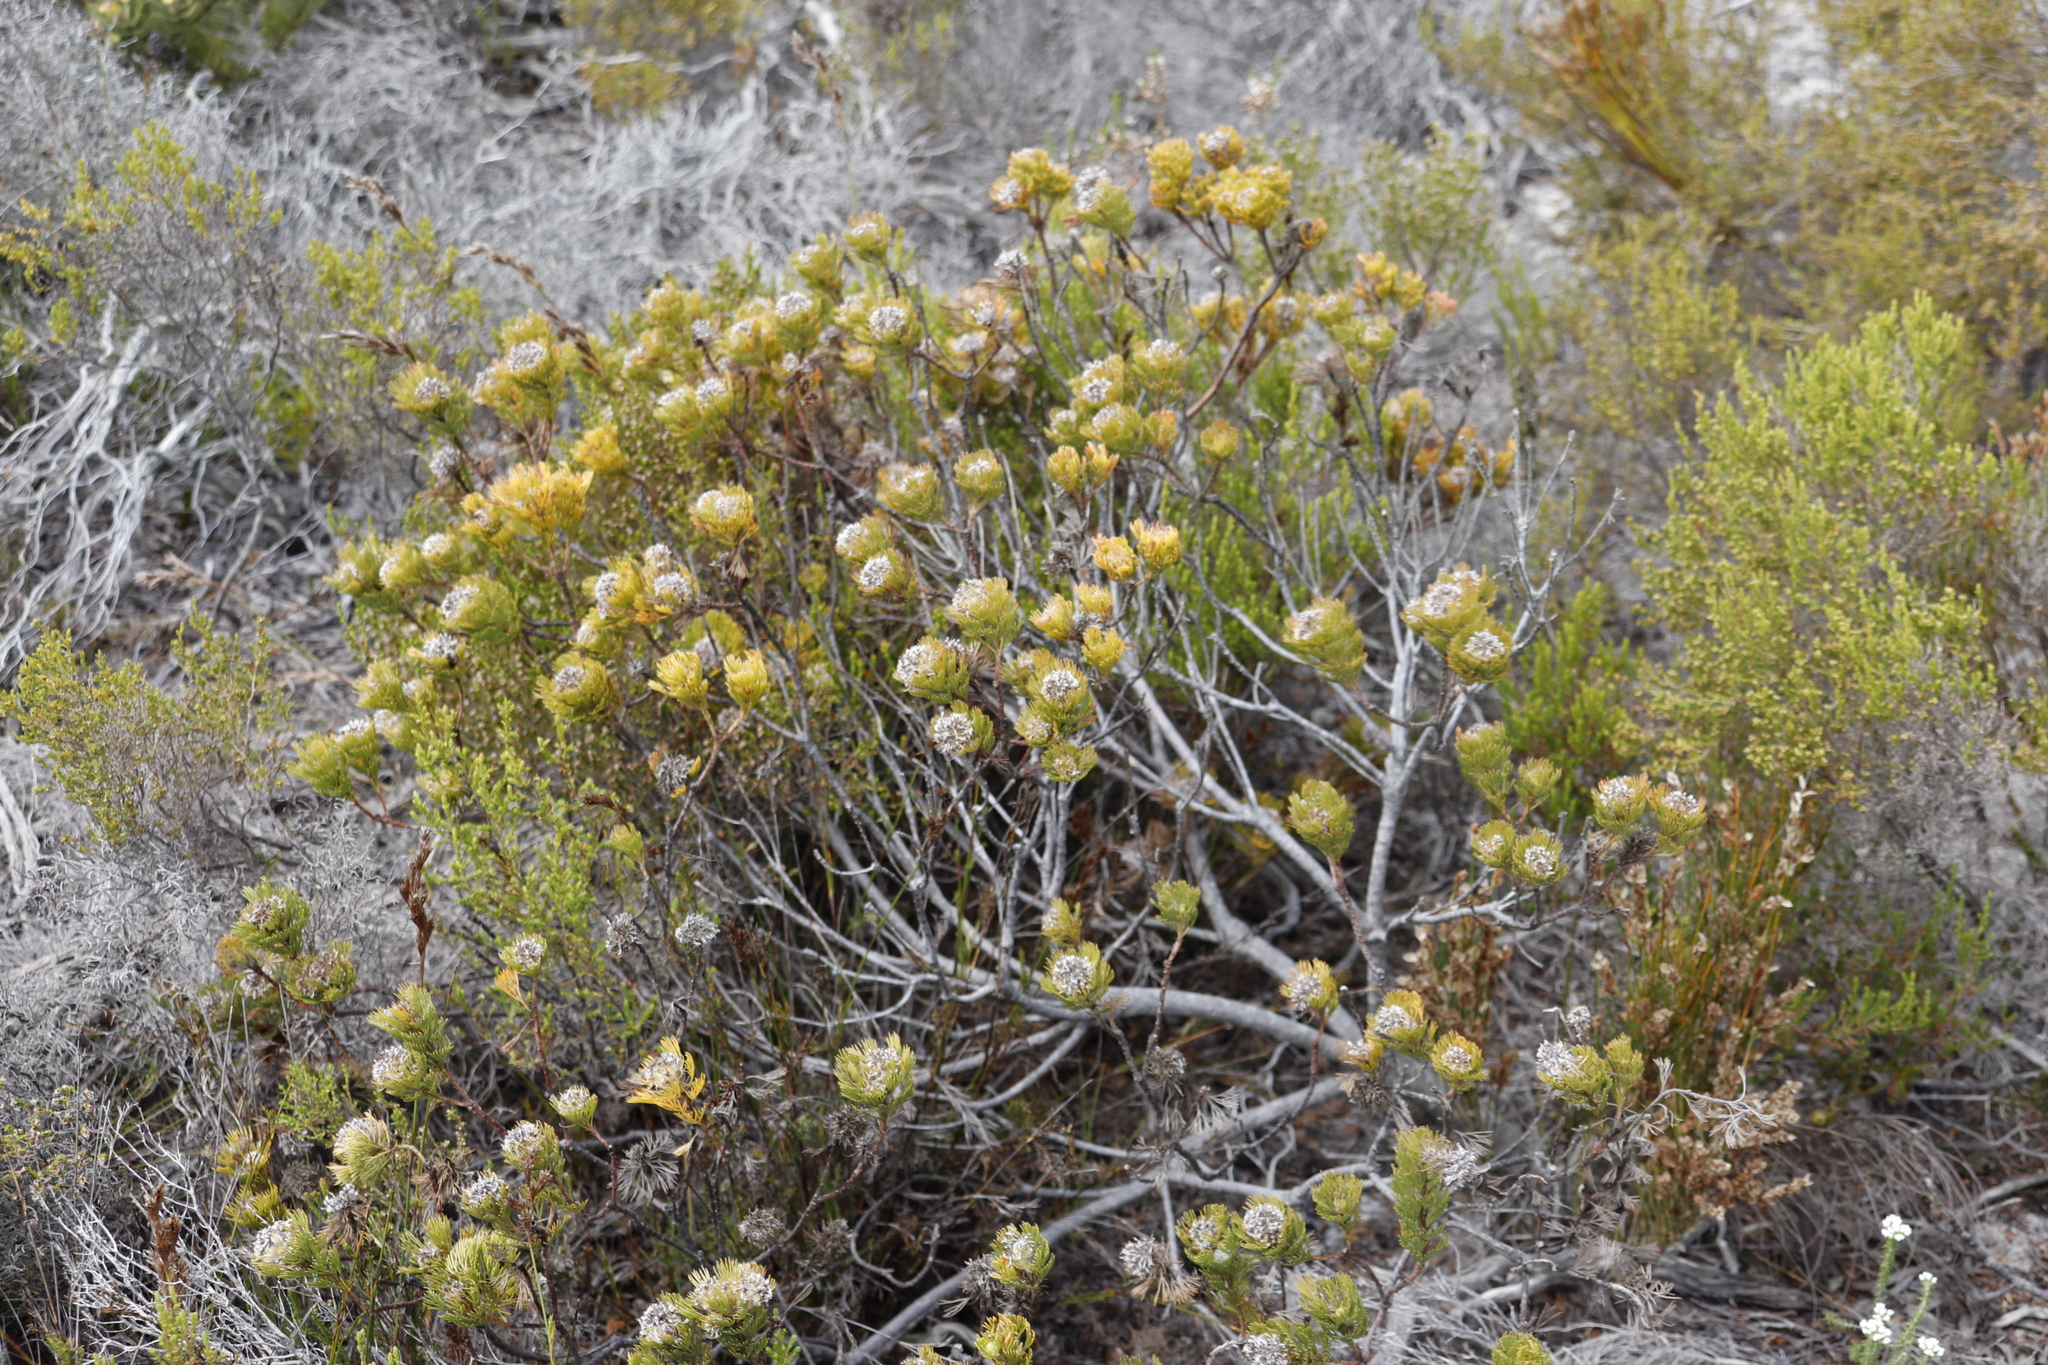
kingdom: Plantae
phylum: Tracheophyta
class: Magnoliopsida
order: Proteales
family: Proteaceae
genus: Serruria
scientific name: Serruria villosa
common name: Golden spiderhead
